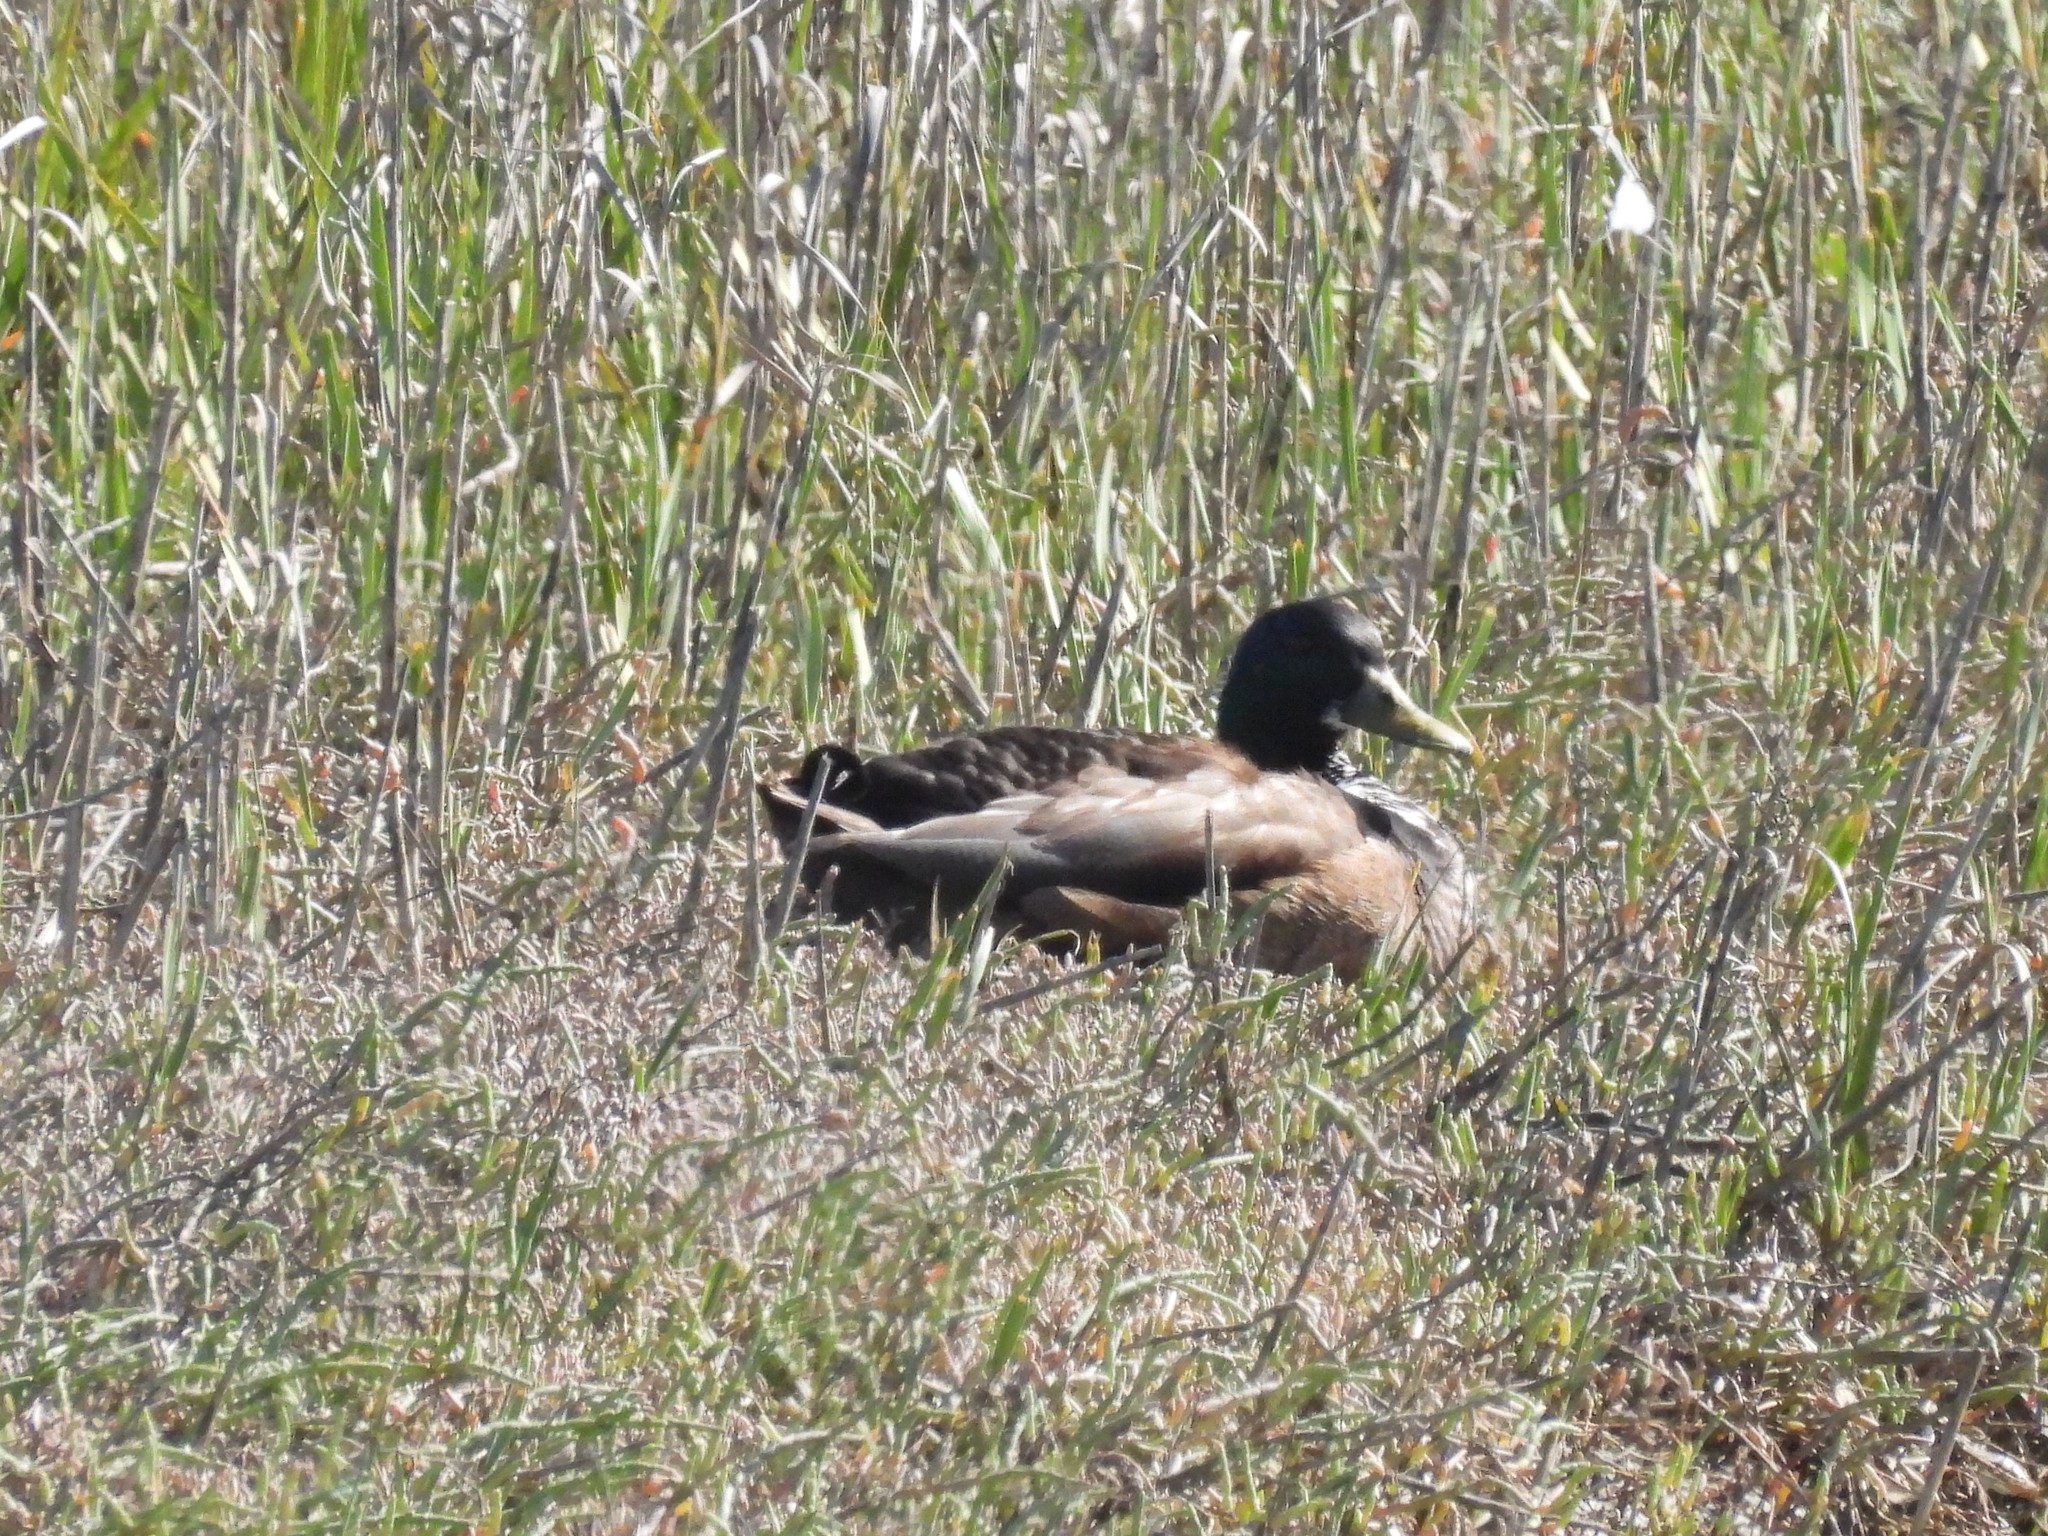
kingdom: Animalia
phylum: Chordata
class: Aves
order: Anseriformes
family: Anatidae
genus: Anas
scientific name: Anas platyrhynchos
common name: Mallard
